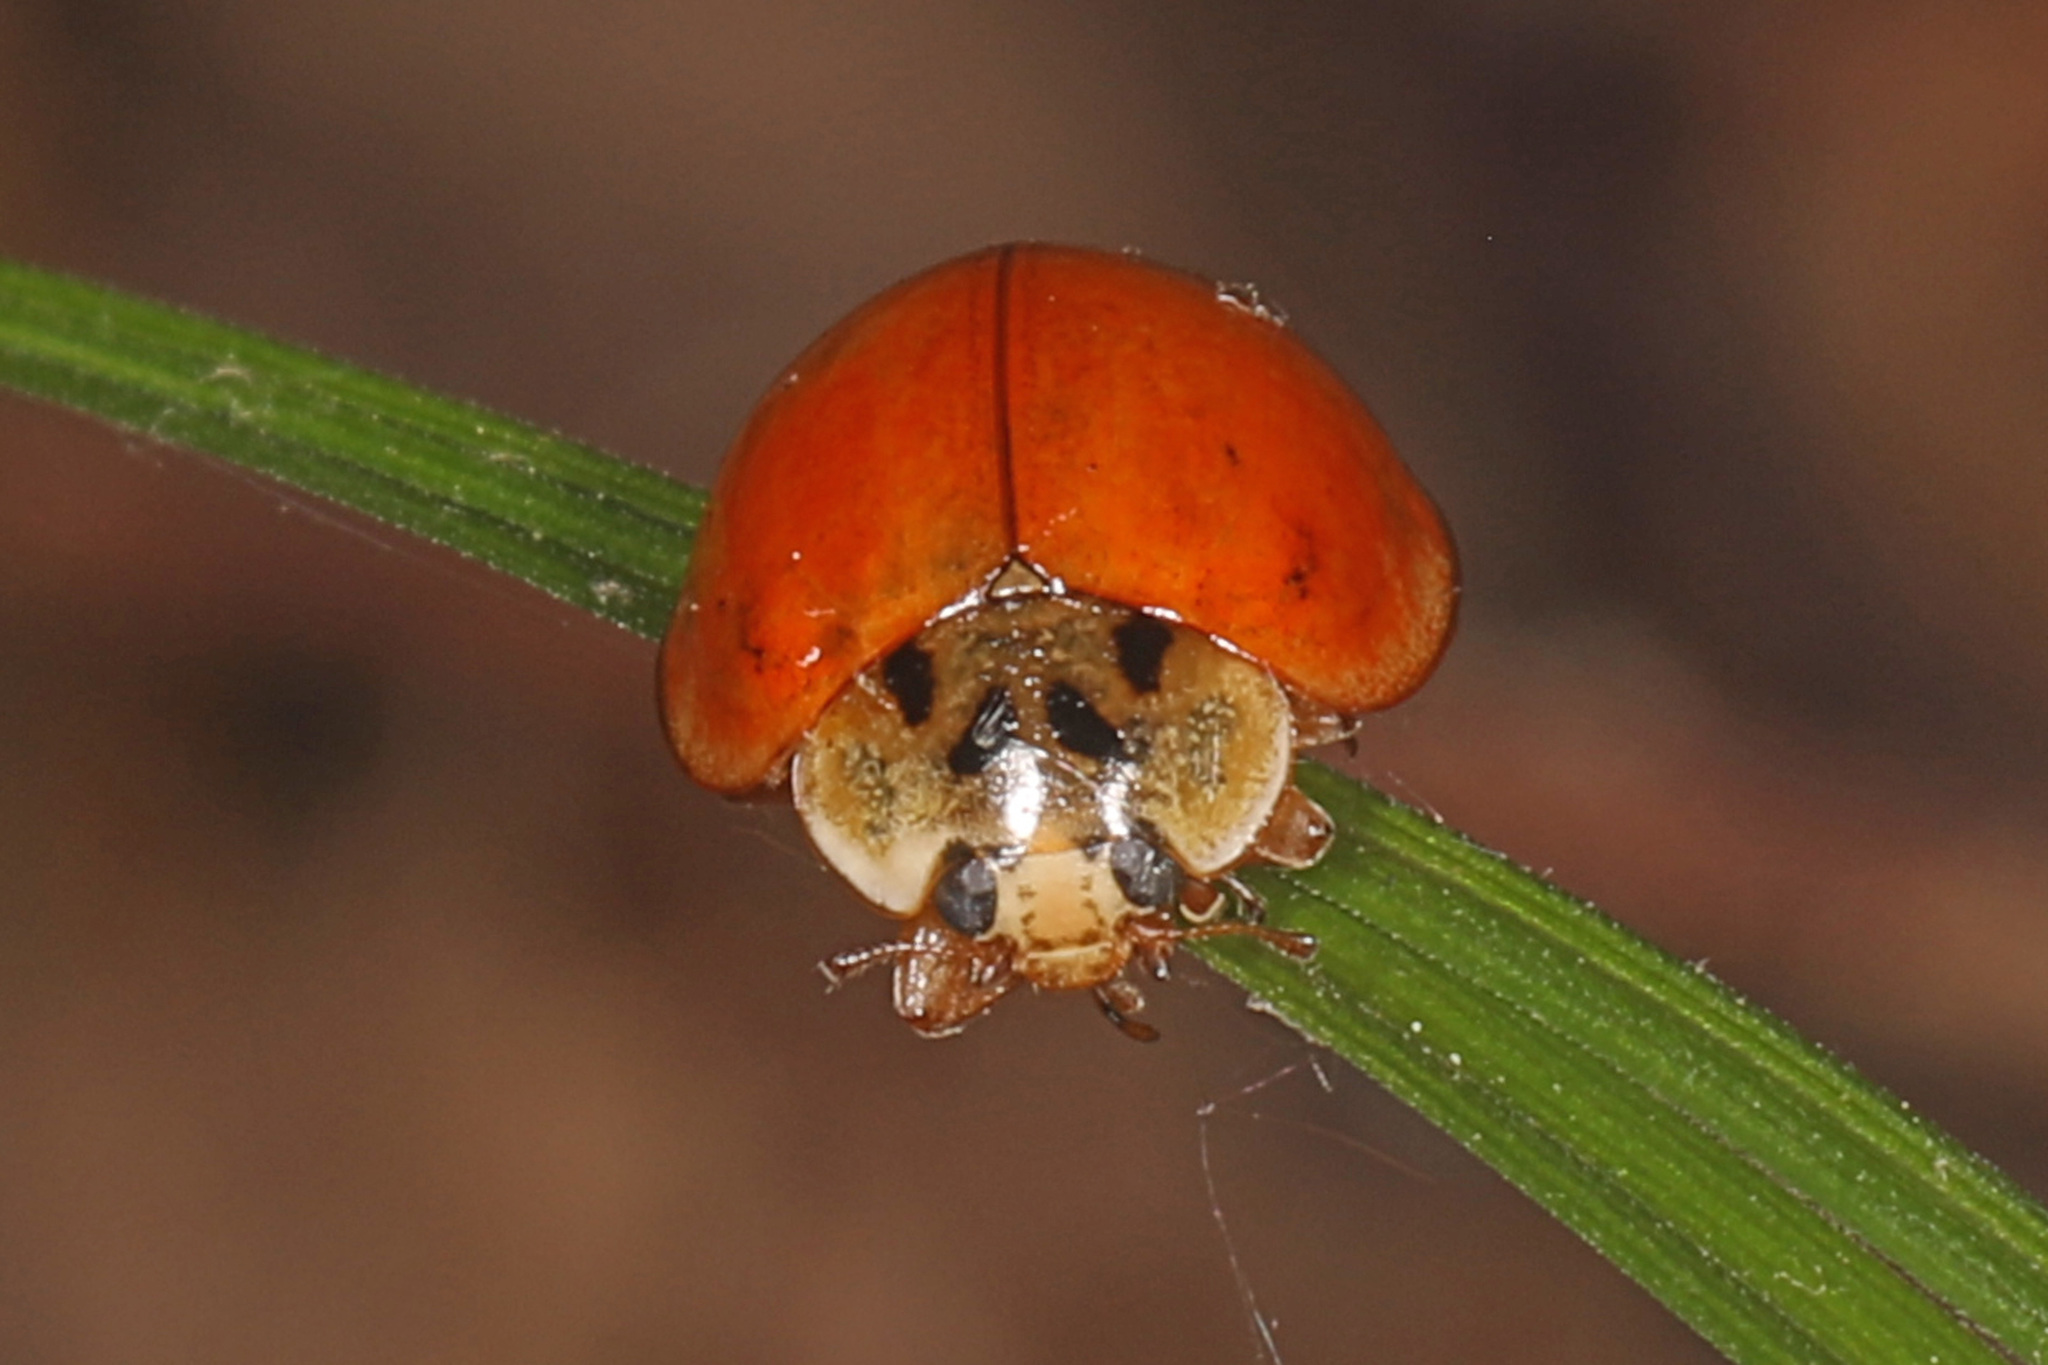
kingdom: Animalia
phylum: Arthropoda
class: Insecta
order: Coleoptera
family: Coccinellidae
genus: Harmonia
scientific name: Harmonia axyridis
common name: Harlequin ladybird
